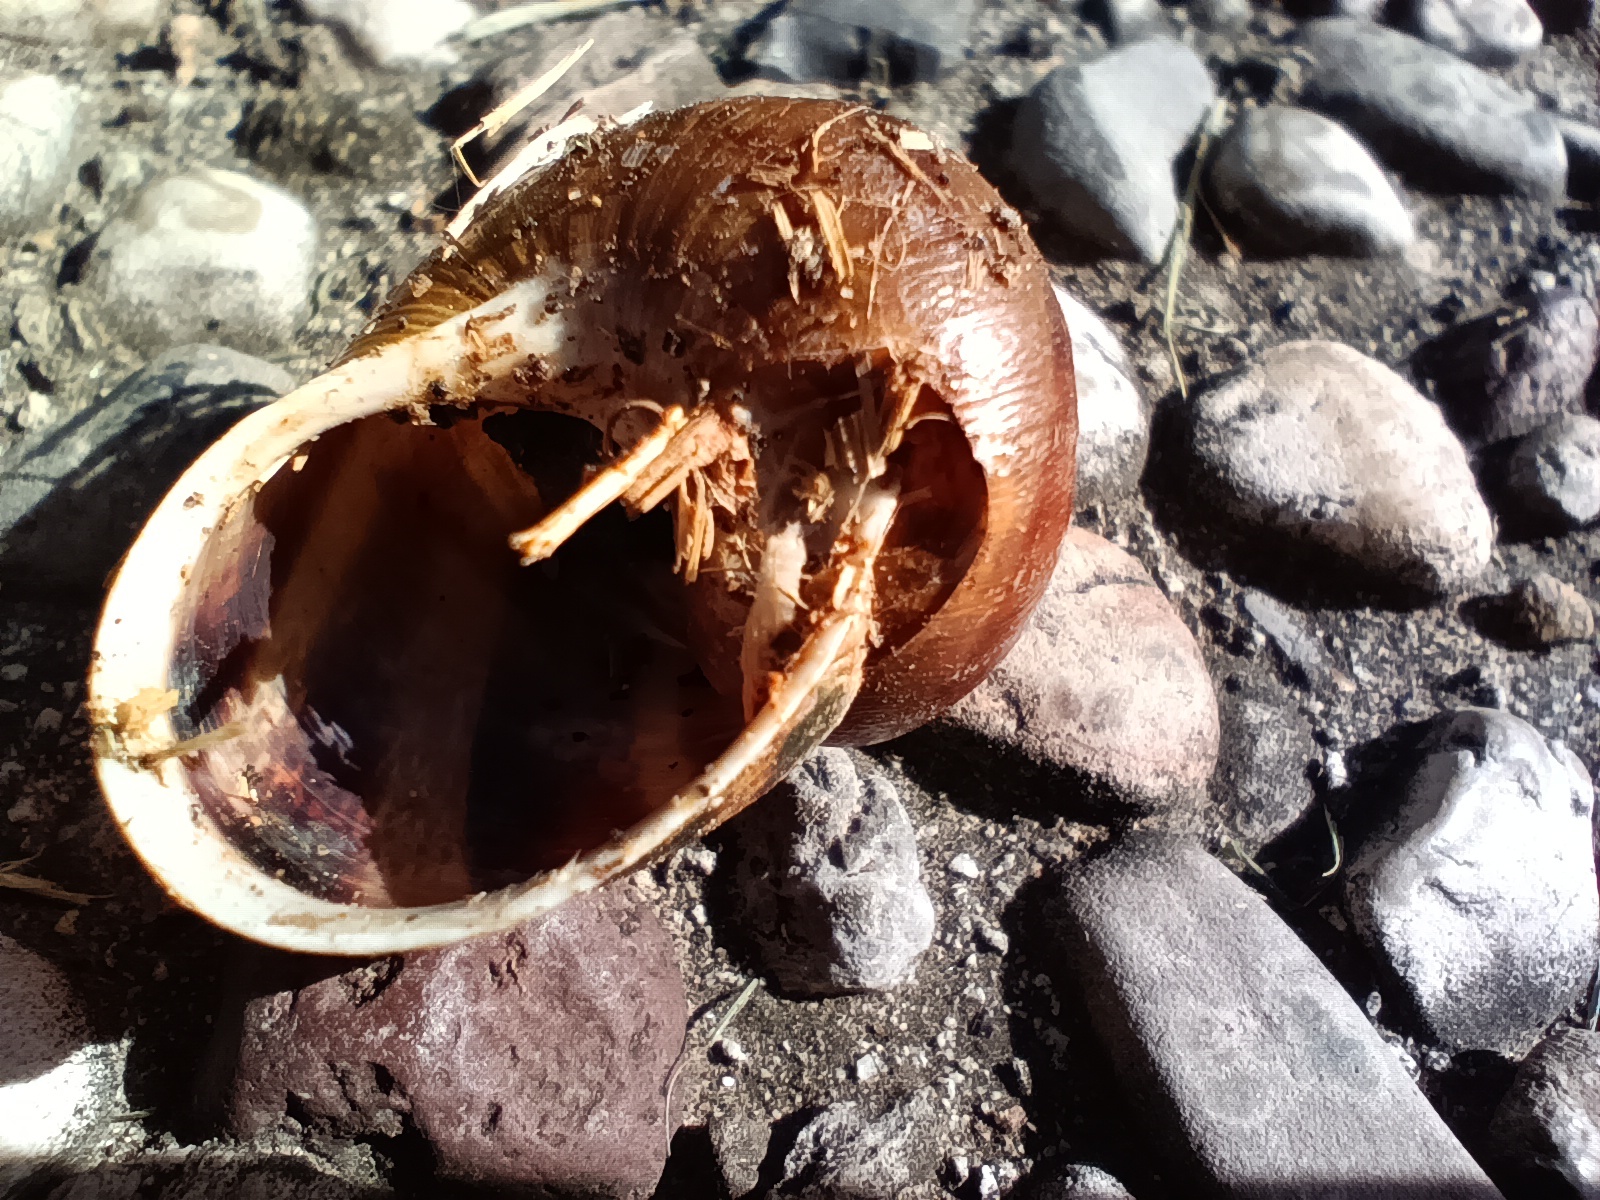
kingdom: Animalia
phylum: Mollusca
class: Gastropoda
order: Stylommatophora
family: Helicidae
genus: Cornu
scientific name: Cornu aspersum
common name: Brown garden snail
